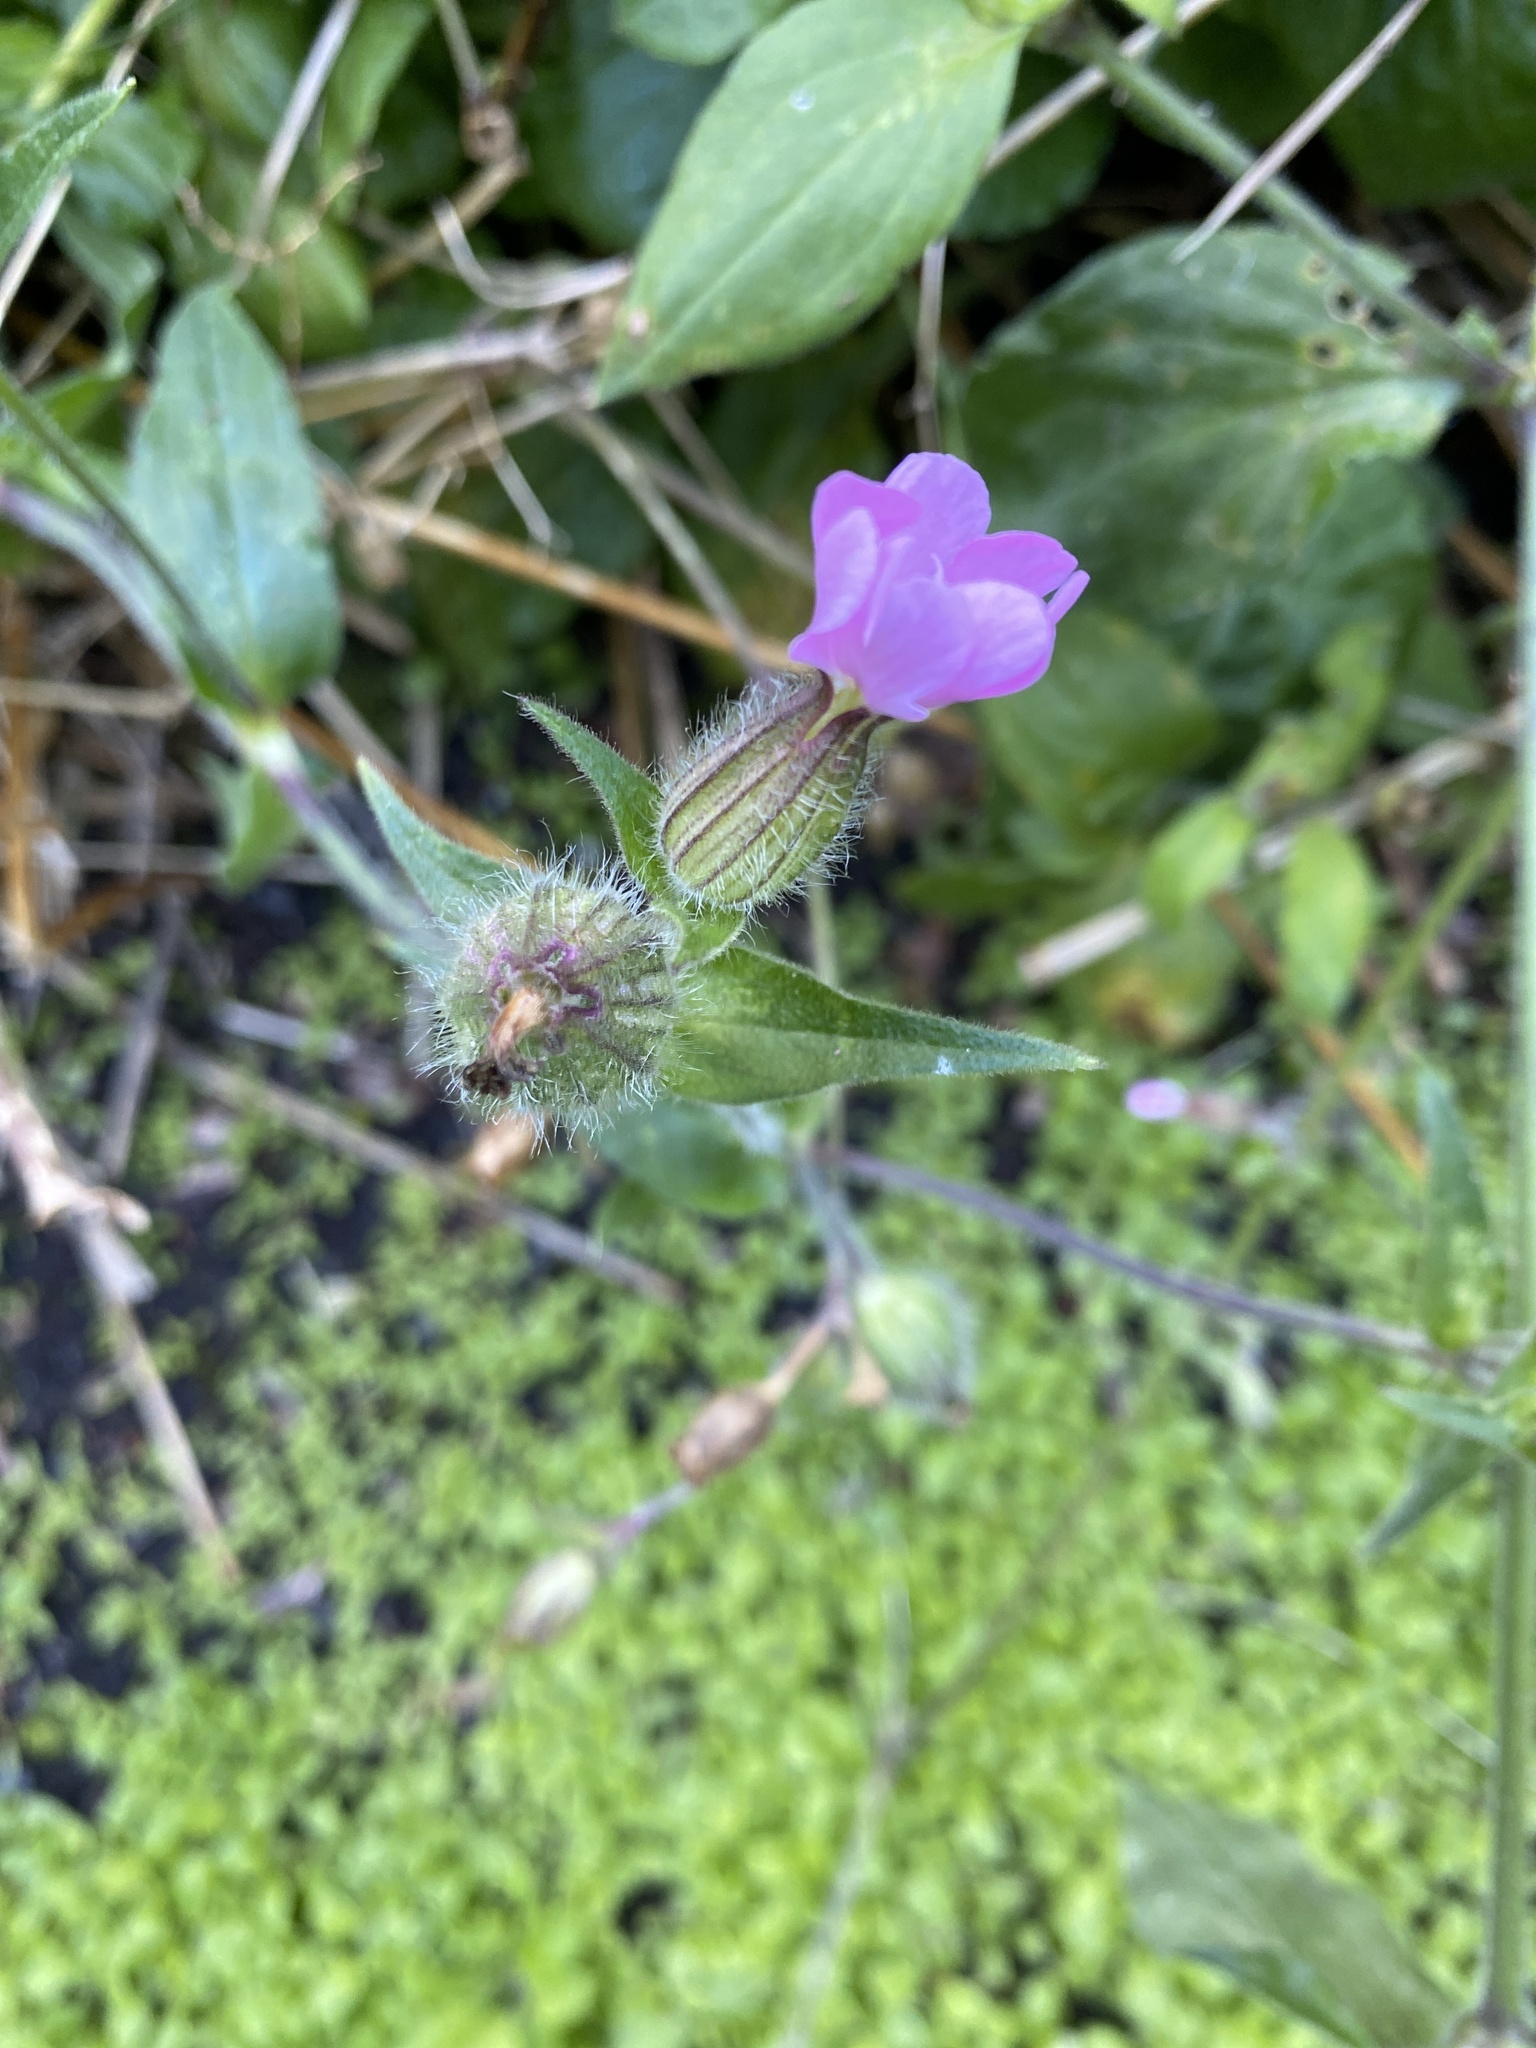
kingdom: Plantae
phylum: Tracheophyta
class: Magnoliopsida
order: Caryophyllales
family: Caryophyllaceae
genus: Silene
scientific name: Silene dioica
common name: Red campion
